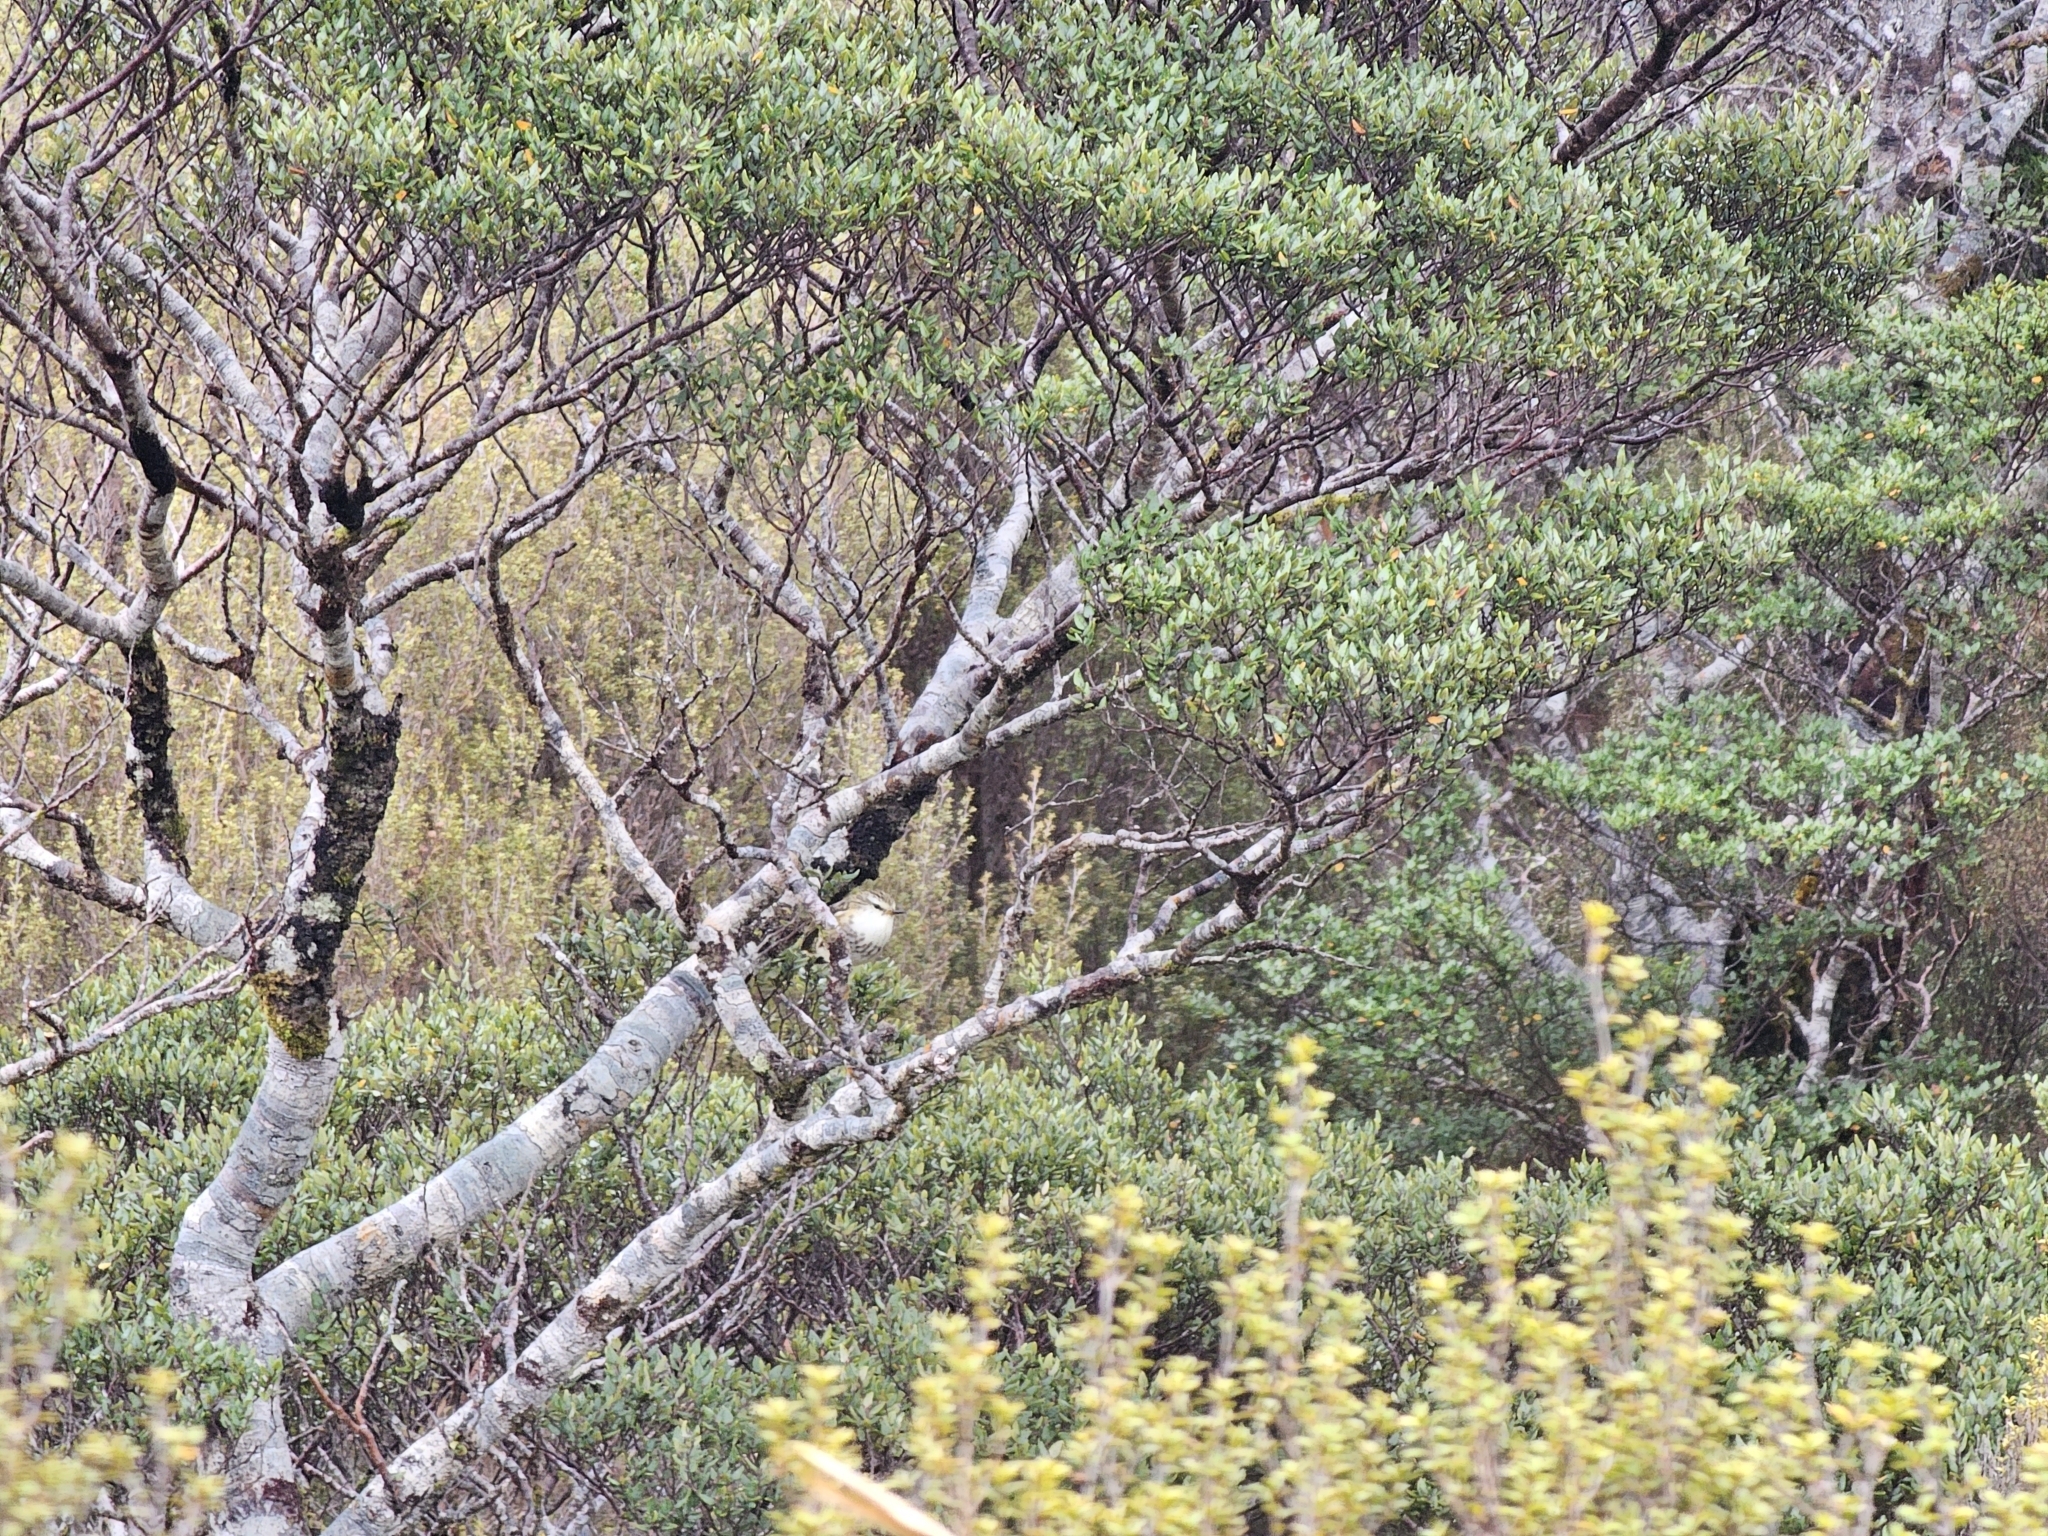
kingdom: Animalia
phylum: Chordata
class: Aves
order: Passeriformes
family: Acanthisittidae
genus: Acanthisitta
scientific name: Acanthisitta chloris
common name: Rifleman
